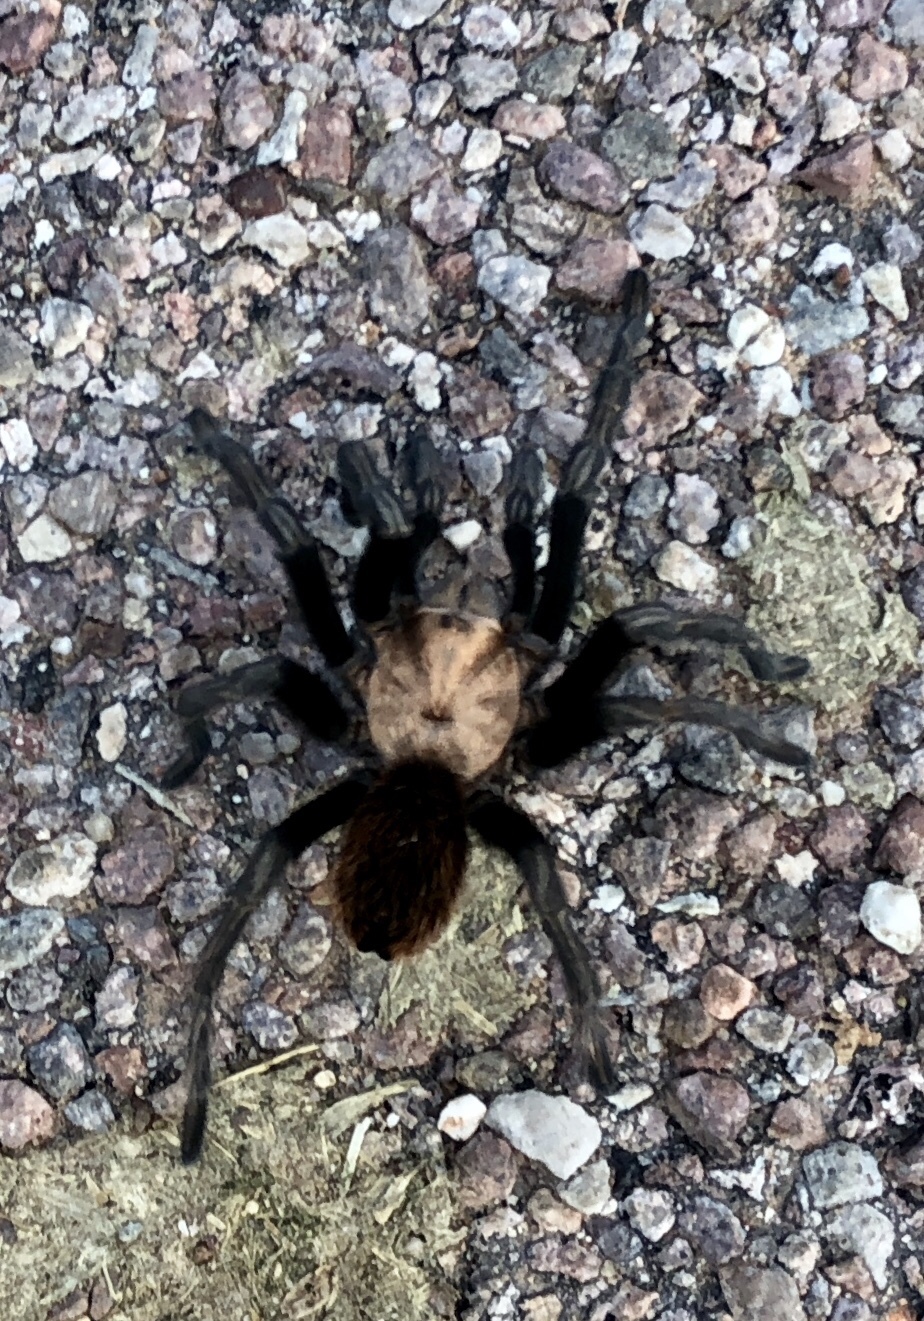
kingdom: Animalia
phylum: Arthropoda
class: Arachnida
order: Araneae
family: Theraphosidae
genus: Aphonopelma
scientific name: Aphonopelma chalcodes
